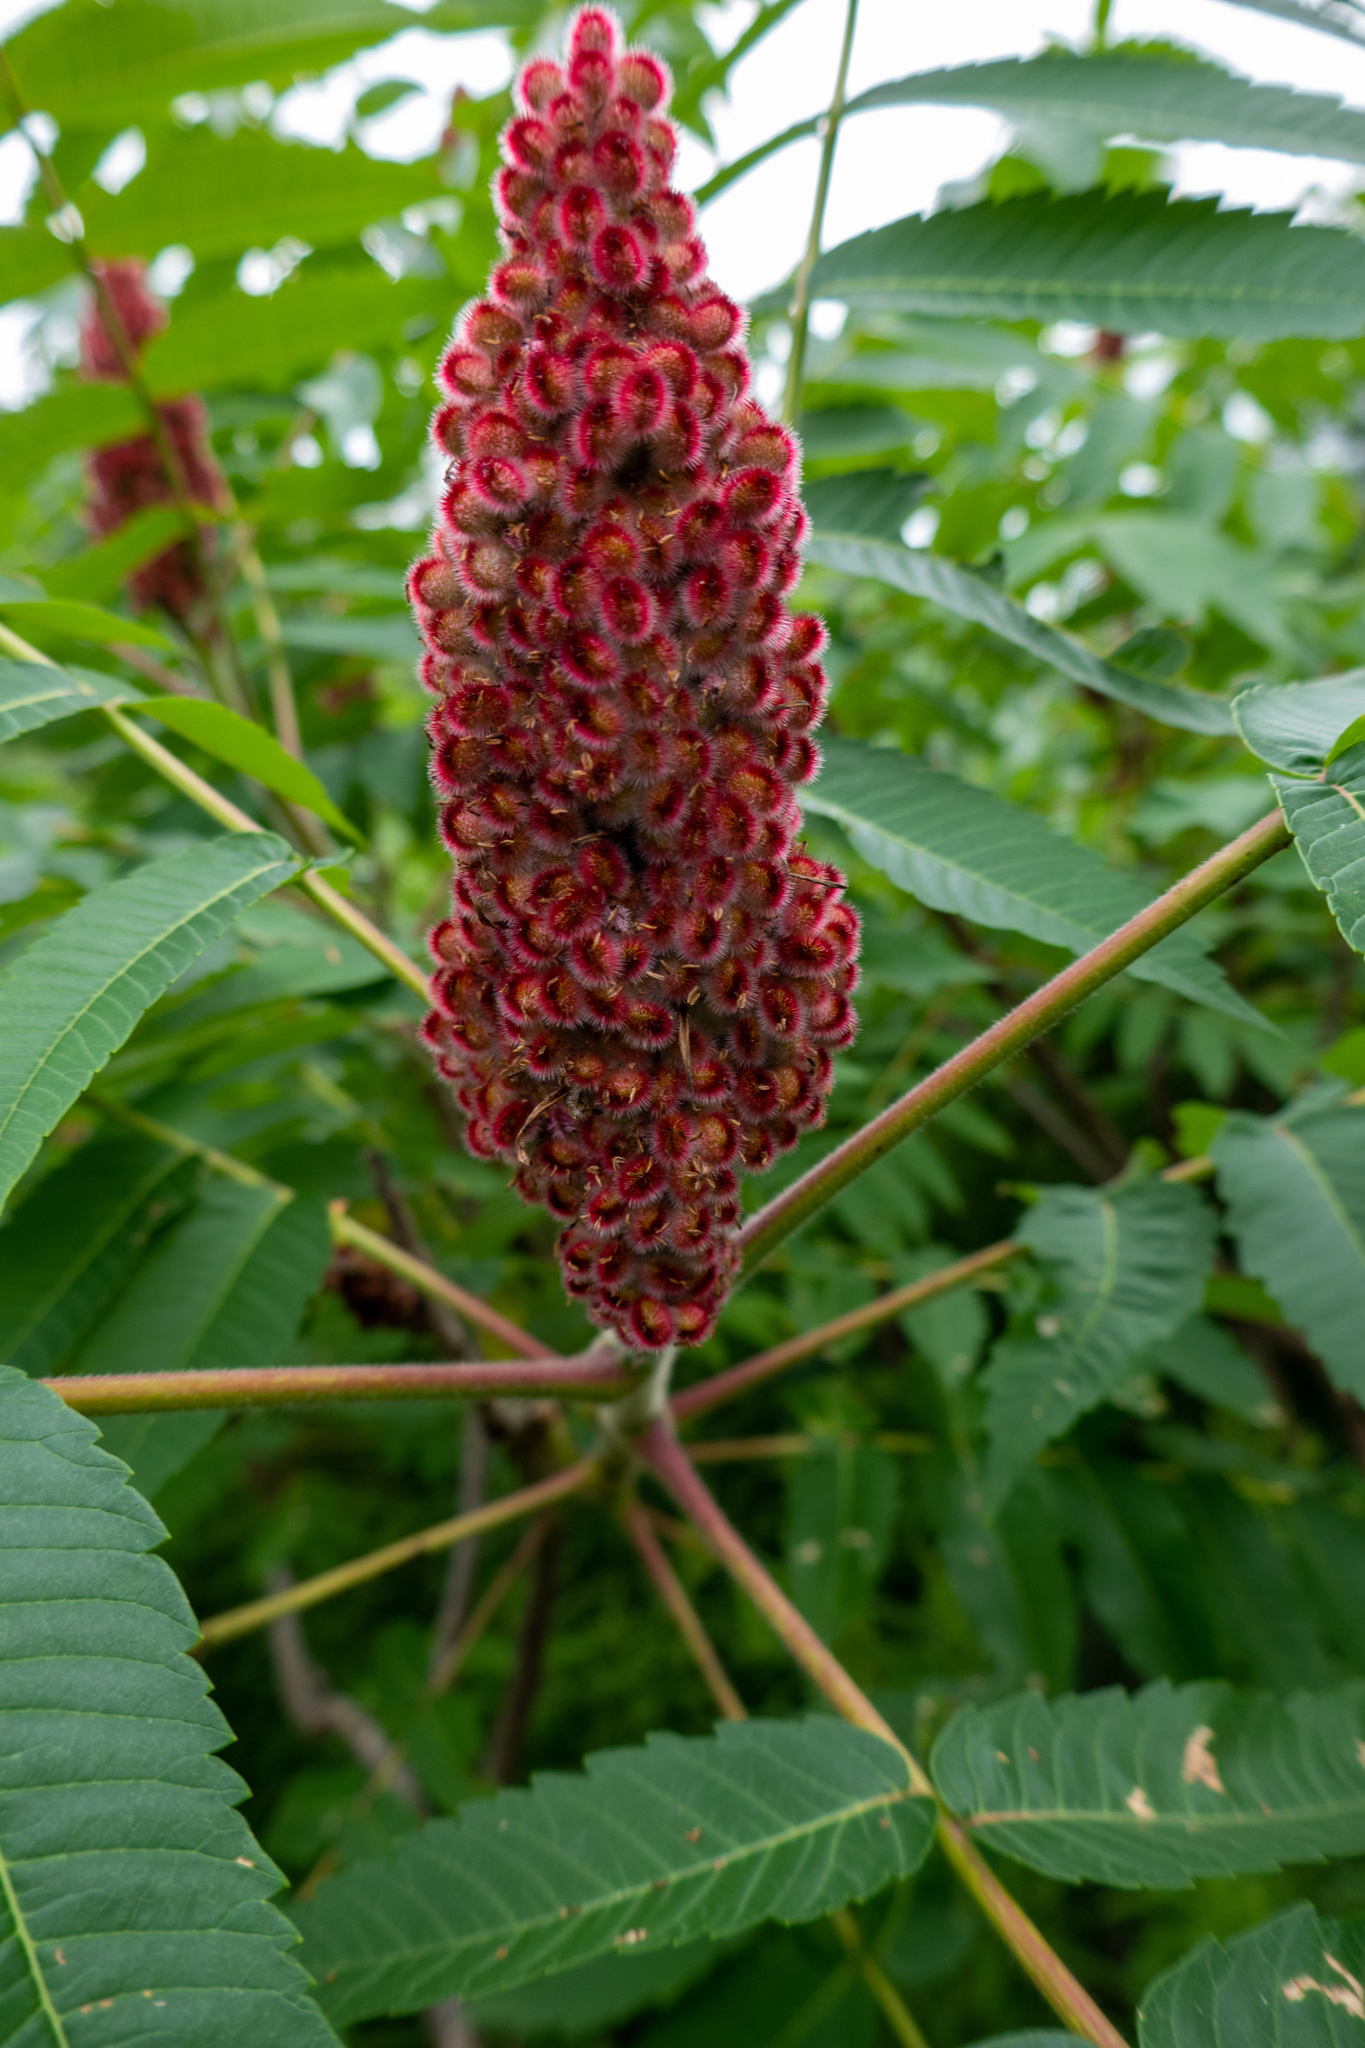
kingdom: Plantae
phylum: Tracheophyta
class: Magnoliopsida
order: Sapindales
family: Anacardiaceae
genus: Rhus
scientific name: Rhus typhina
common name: Staghorn sumac
